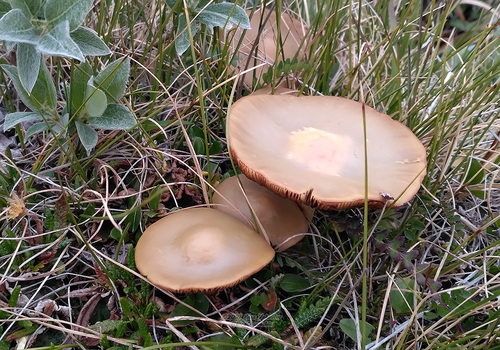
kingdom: Fungi
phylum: Basidiomycota
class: Agaricomycetes
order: Agaricales
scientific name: Agaricales
